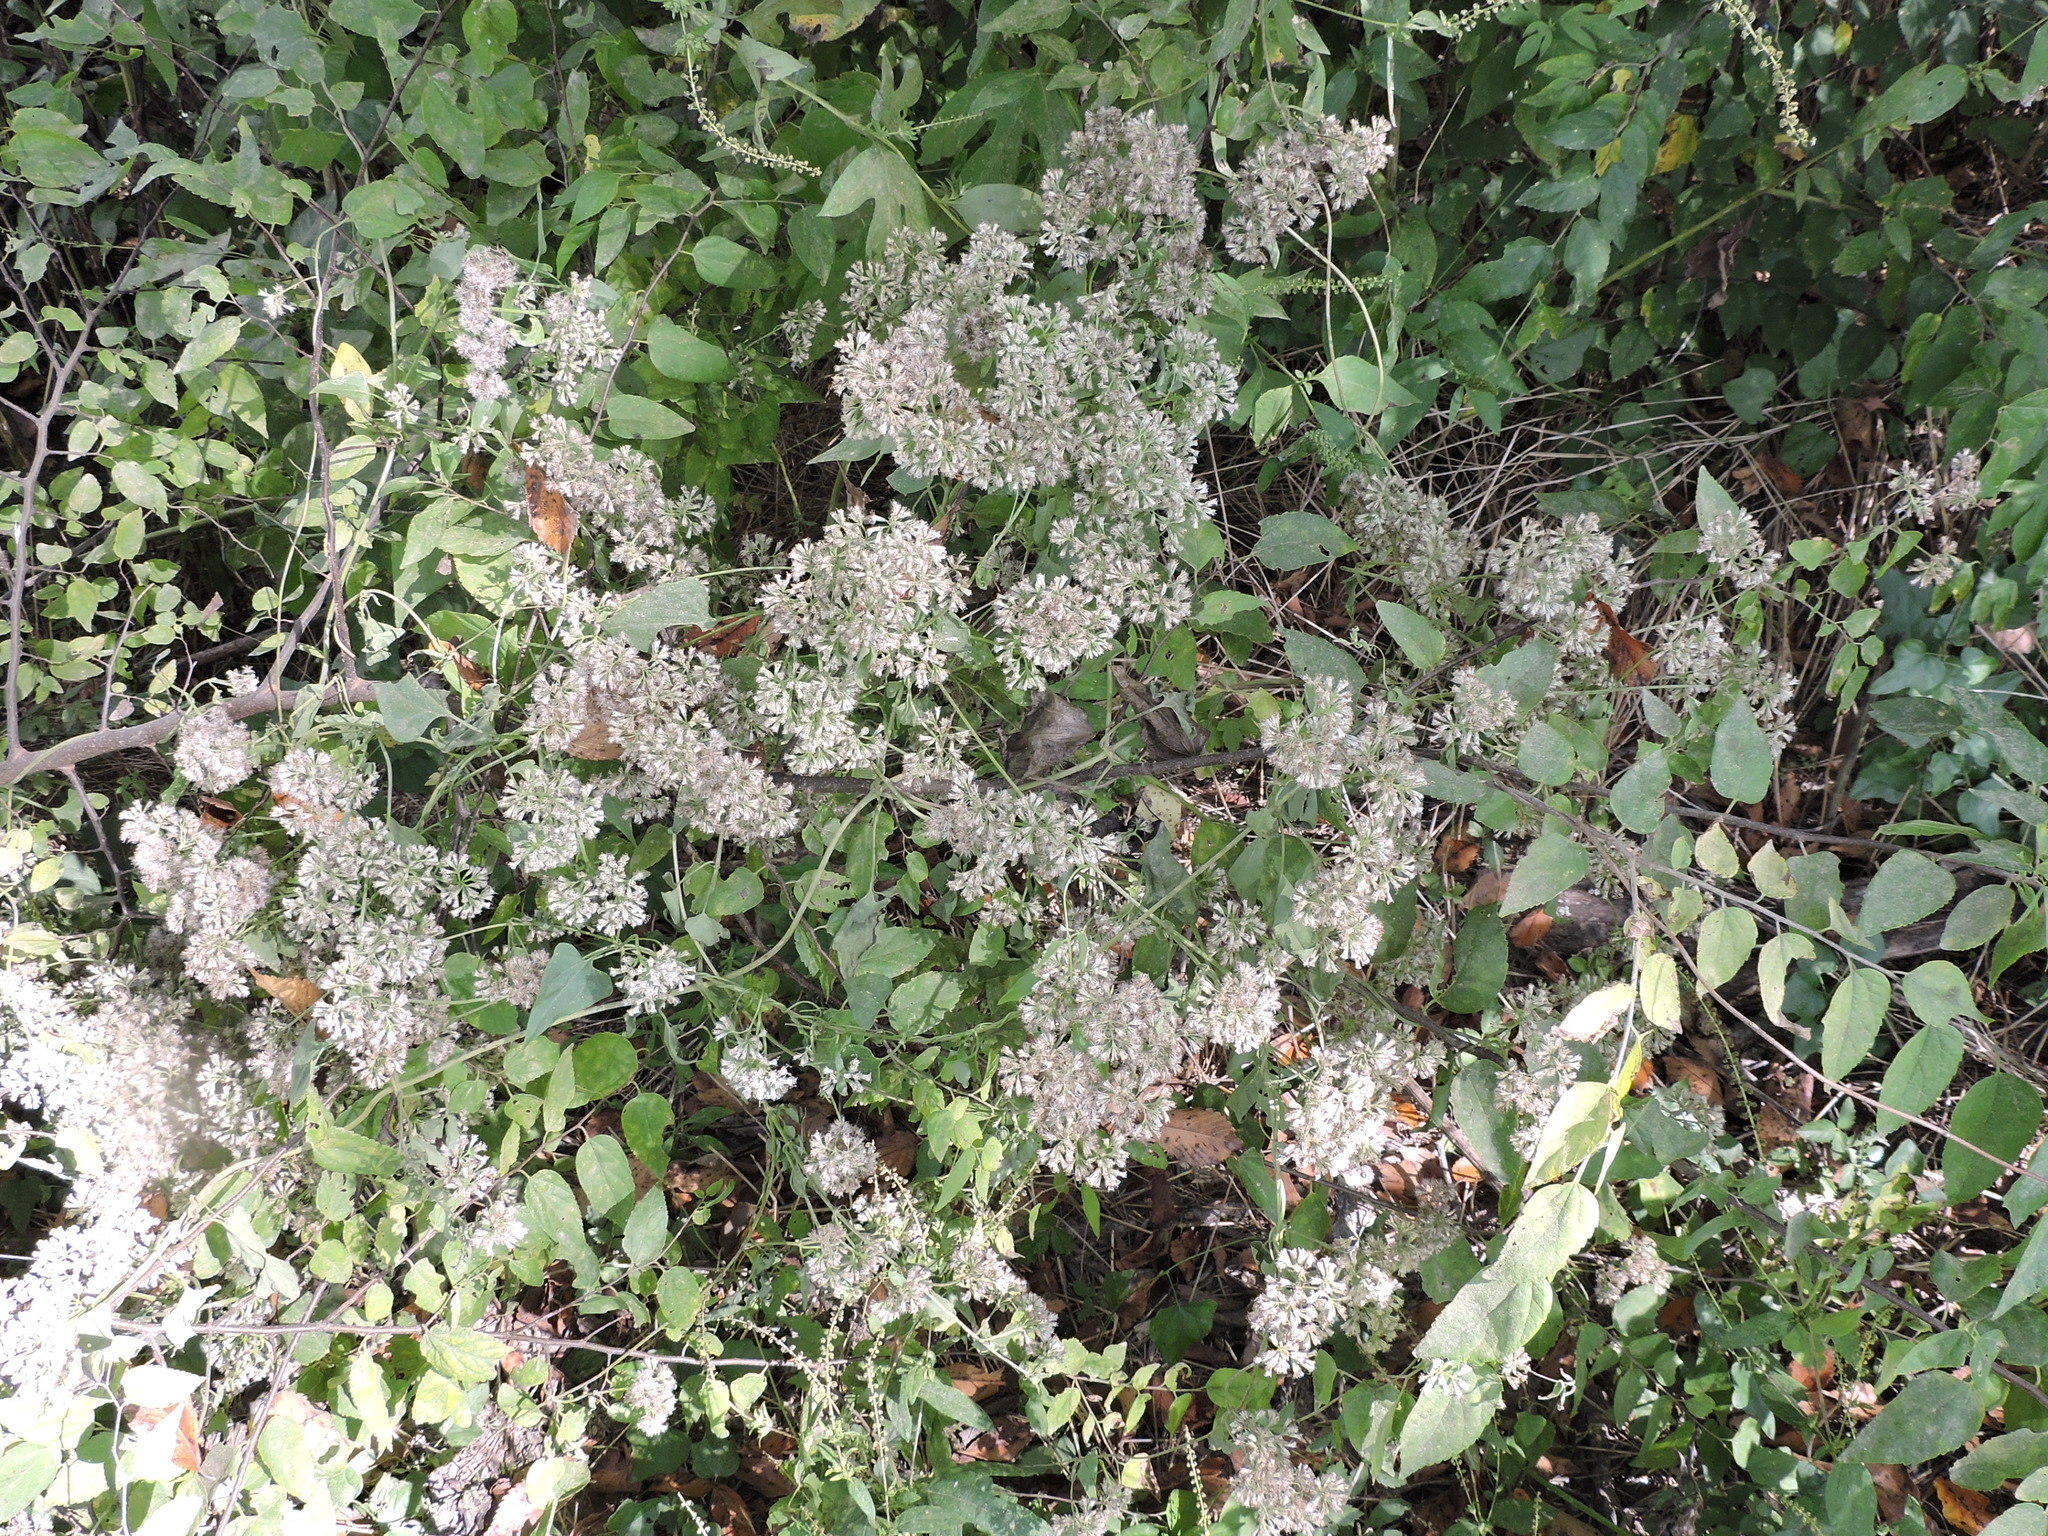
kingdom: Plantae
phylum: Tracheophyta
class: Magnoliopsida
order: Asterales
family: Asteraceae
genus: Mikania
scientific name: Mikania scandens
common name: Climbing hempvine
